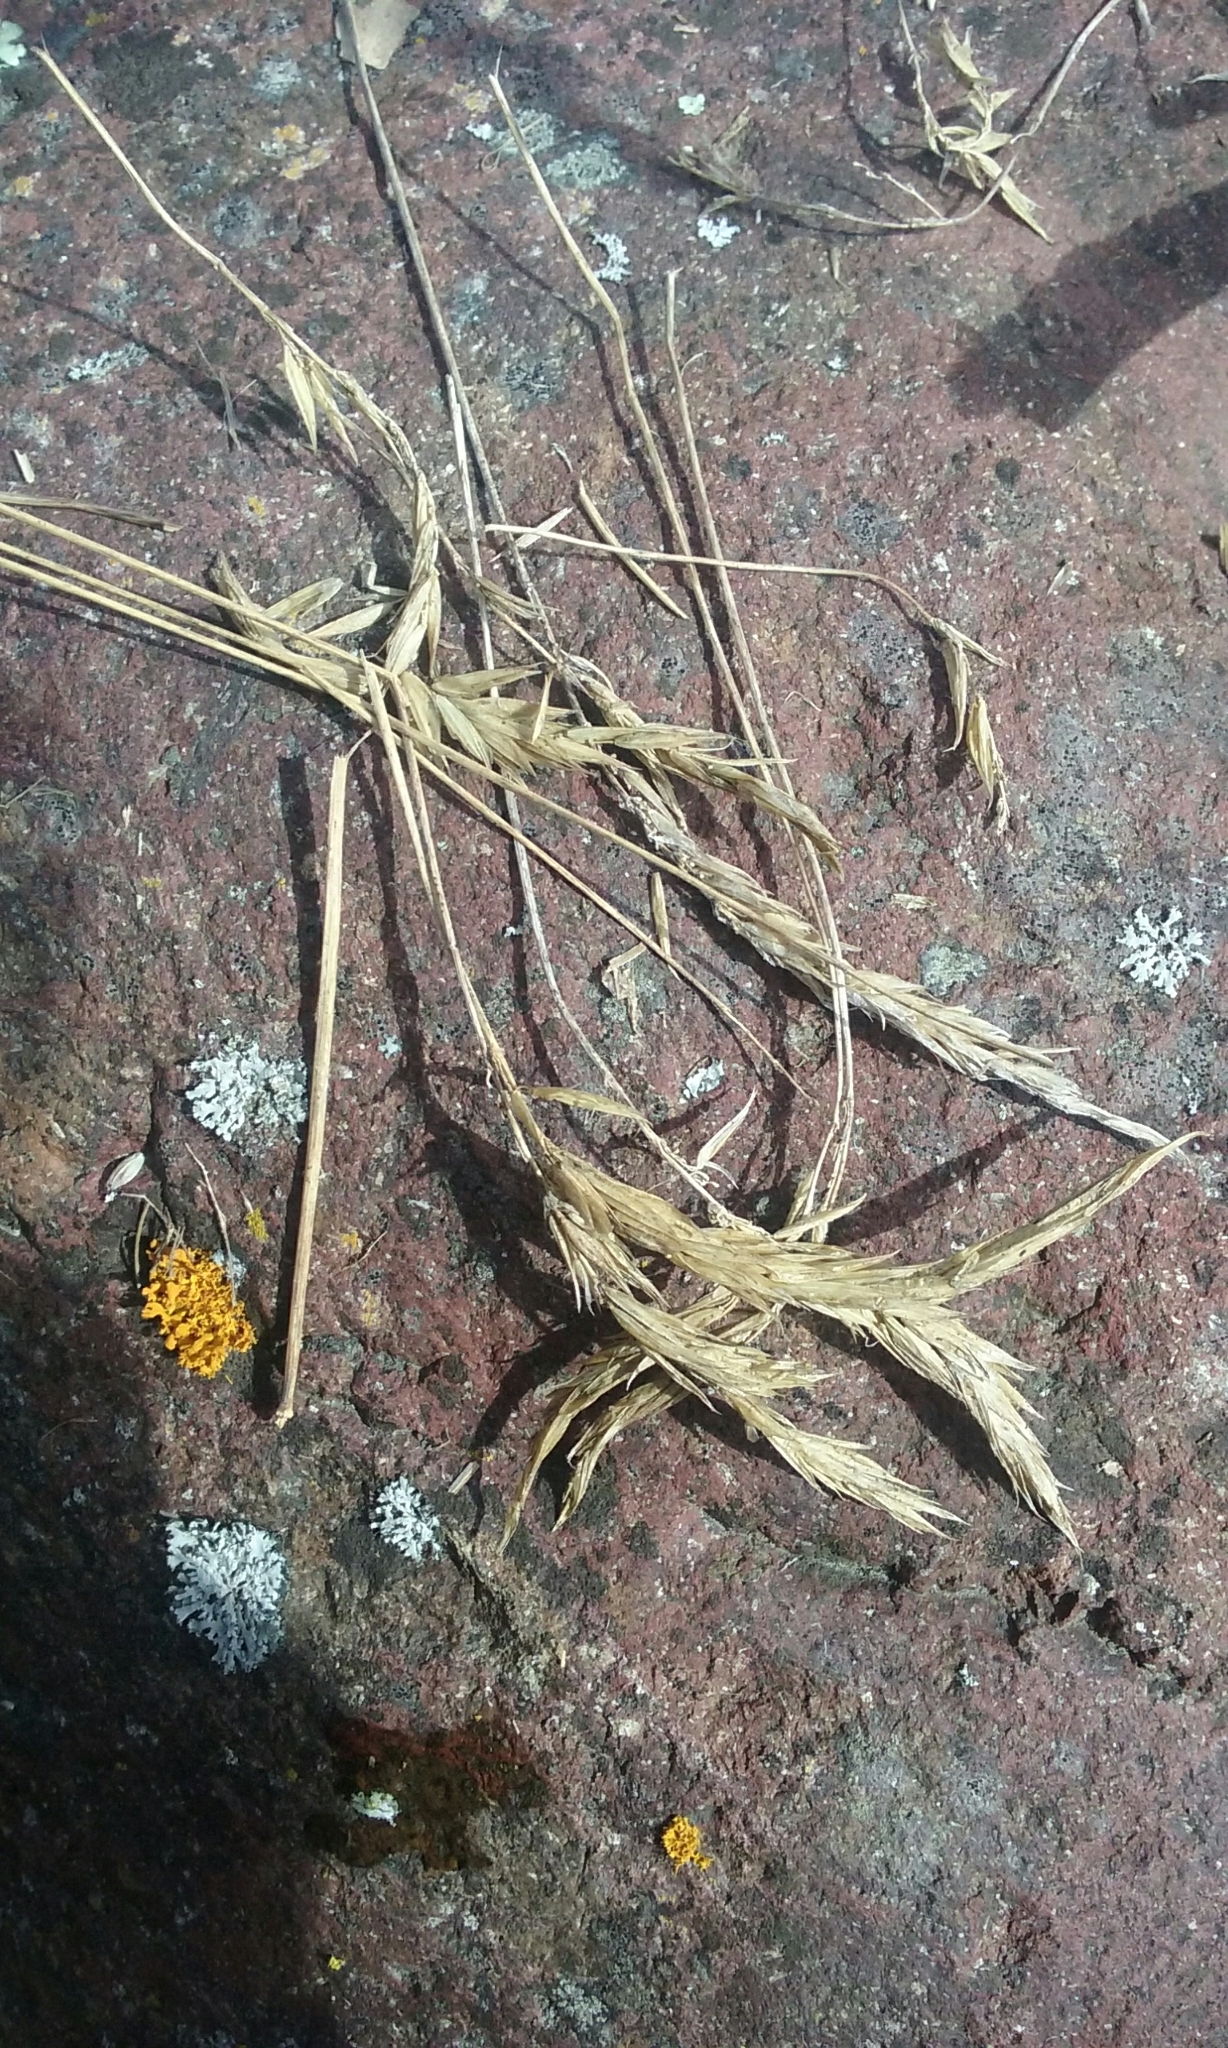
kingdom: Plantae
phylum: Tracheophyta
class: Liliopsida
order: Poales
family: Poaceae
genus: Anthoxanthum
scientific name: Anthoxanthum odoratum
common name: Sweet vernalgrass
